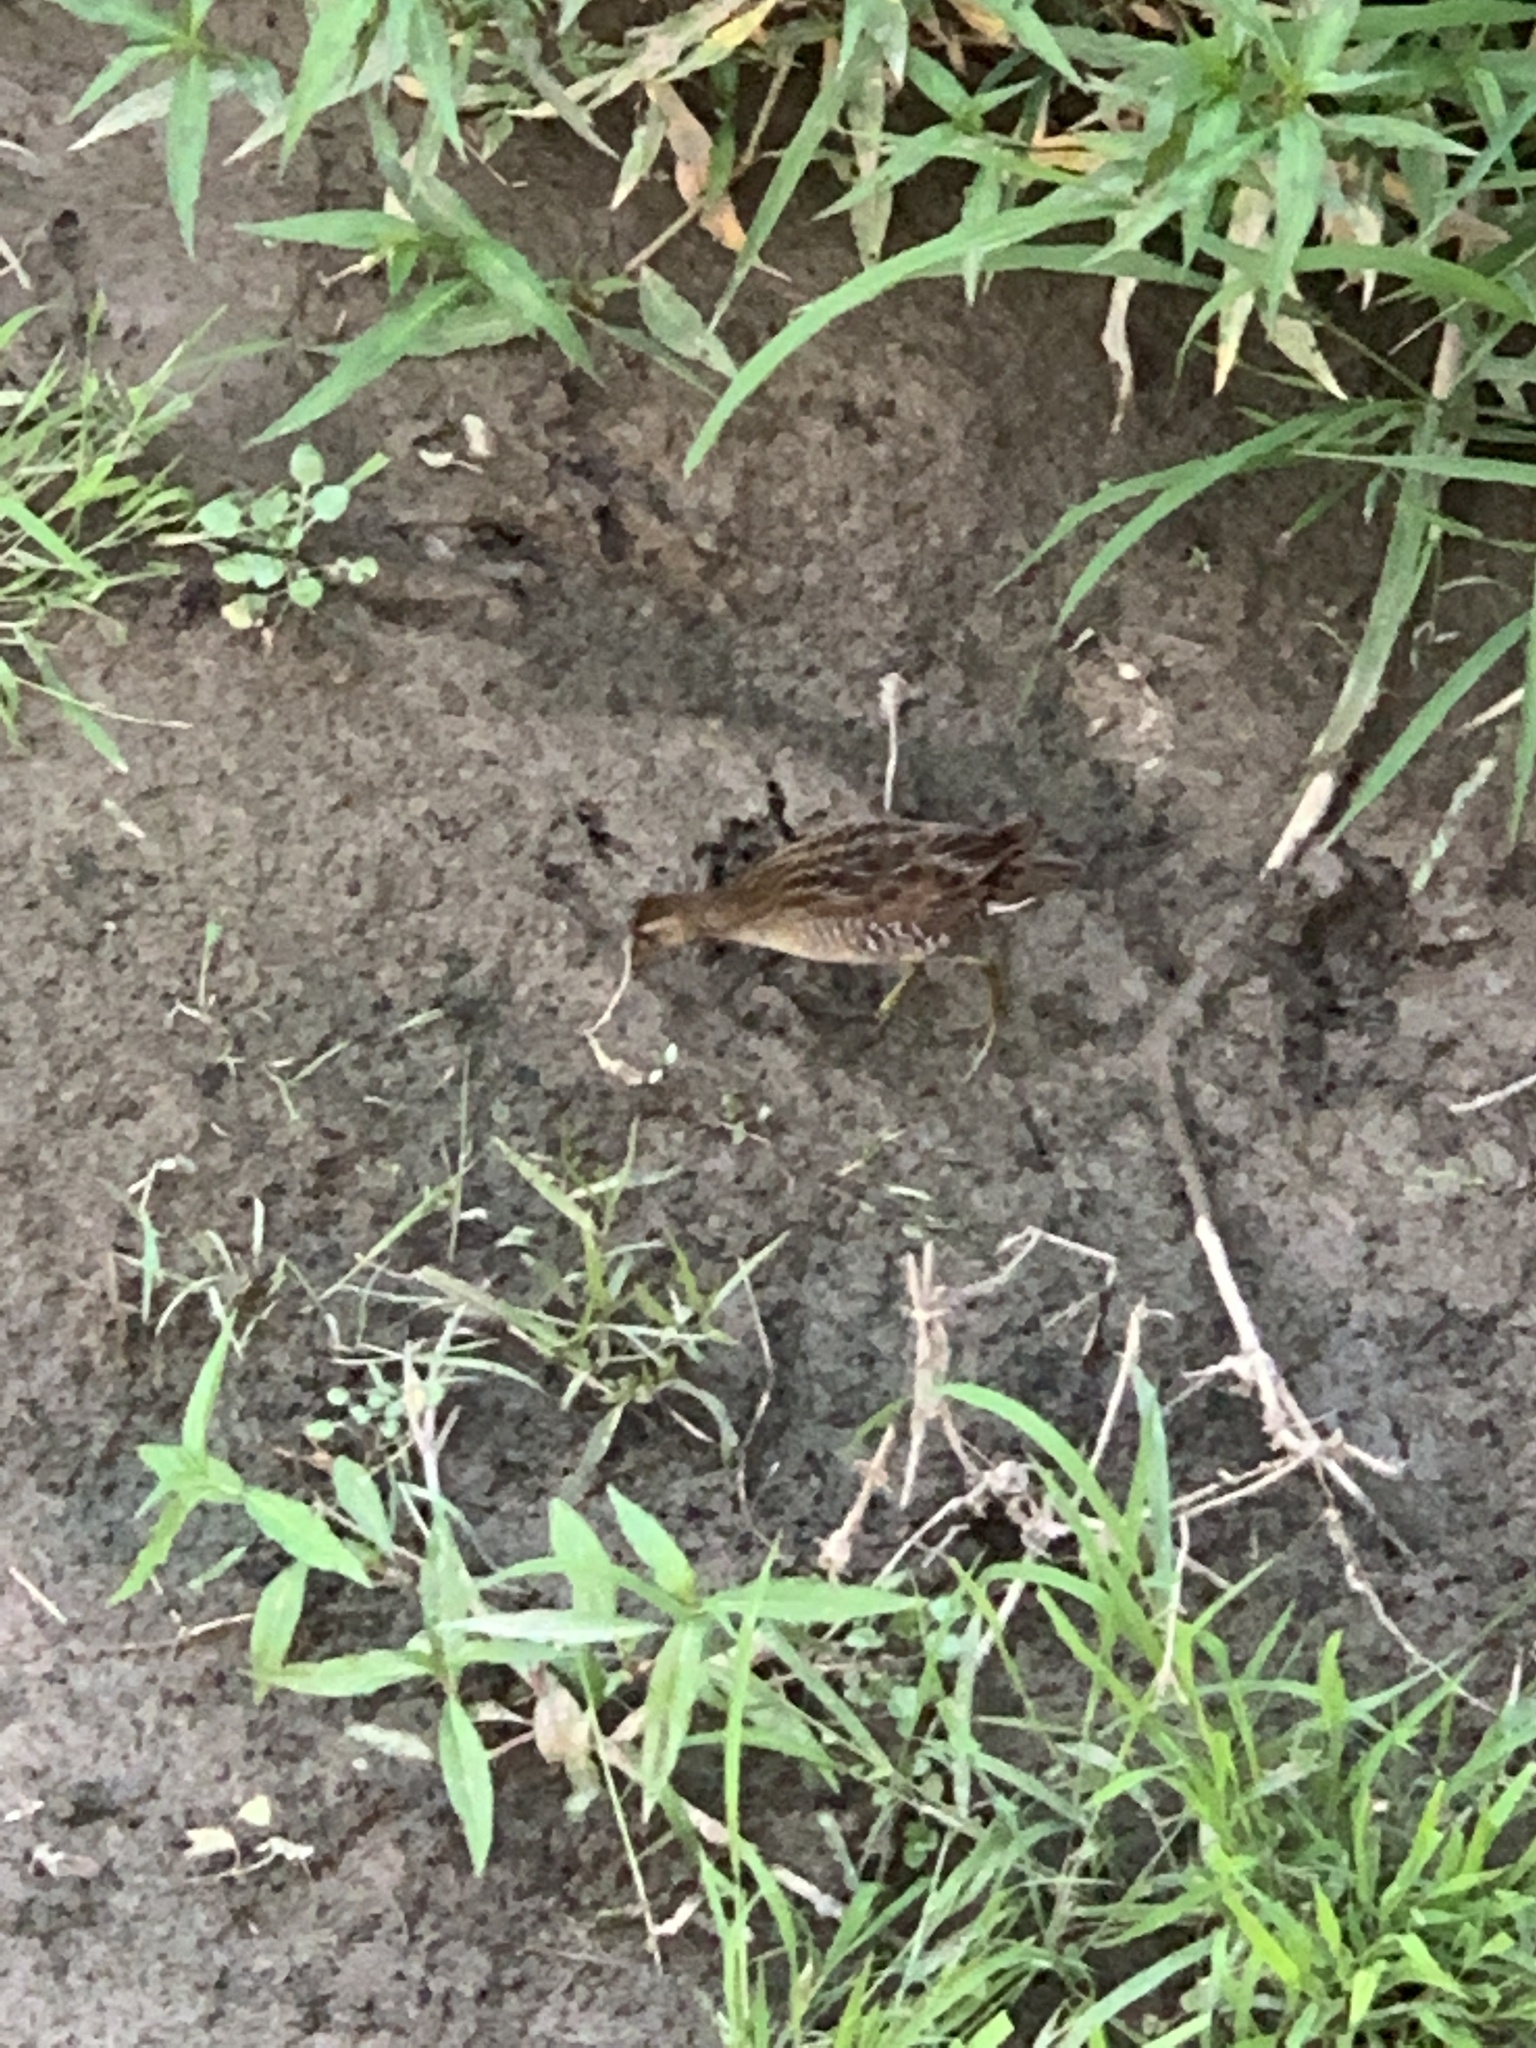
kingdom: Animalia
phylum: Chordata
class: Aves
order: Gruiformes
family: Rallidae
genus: Porzana
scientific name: Porzana carolina
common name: Sora
